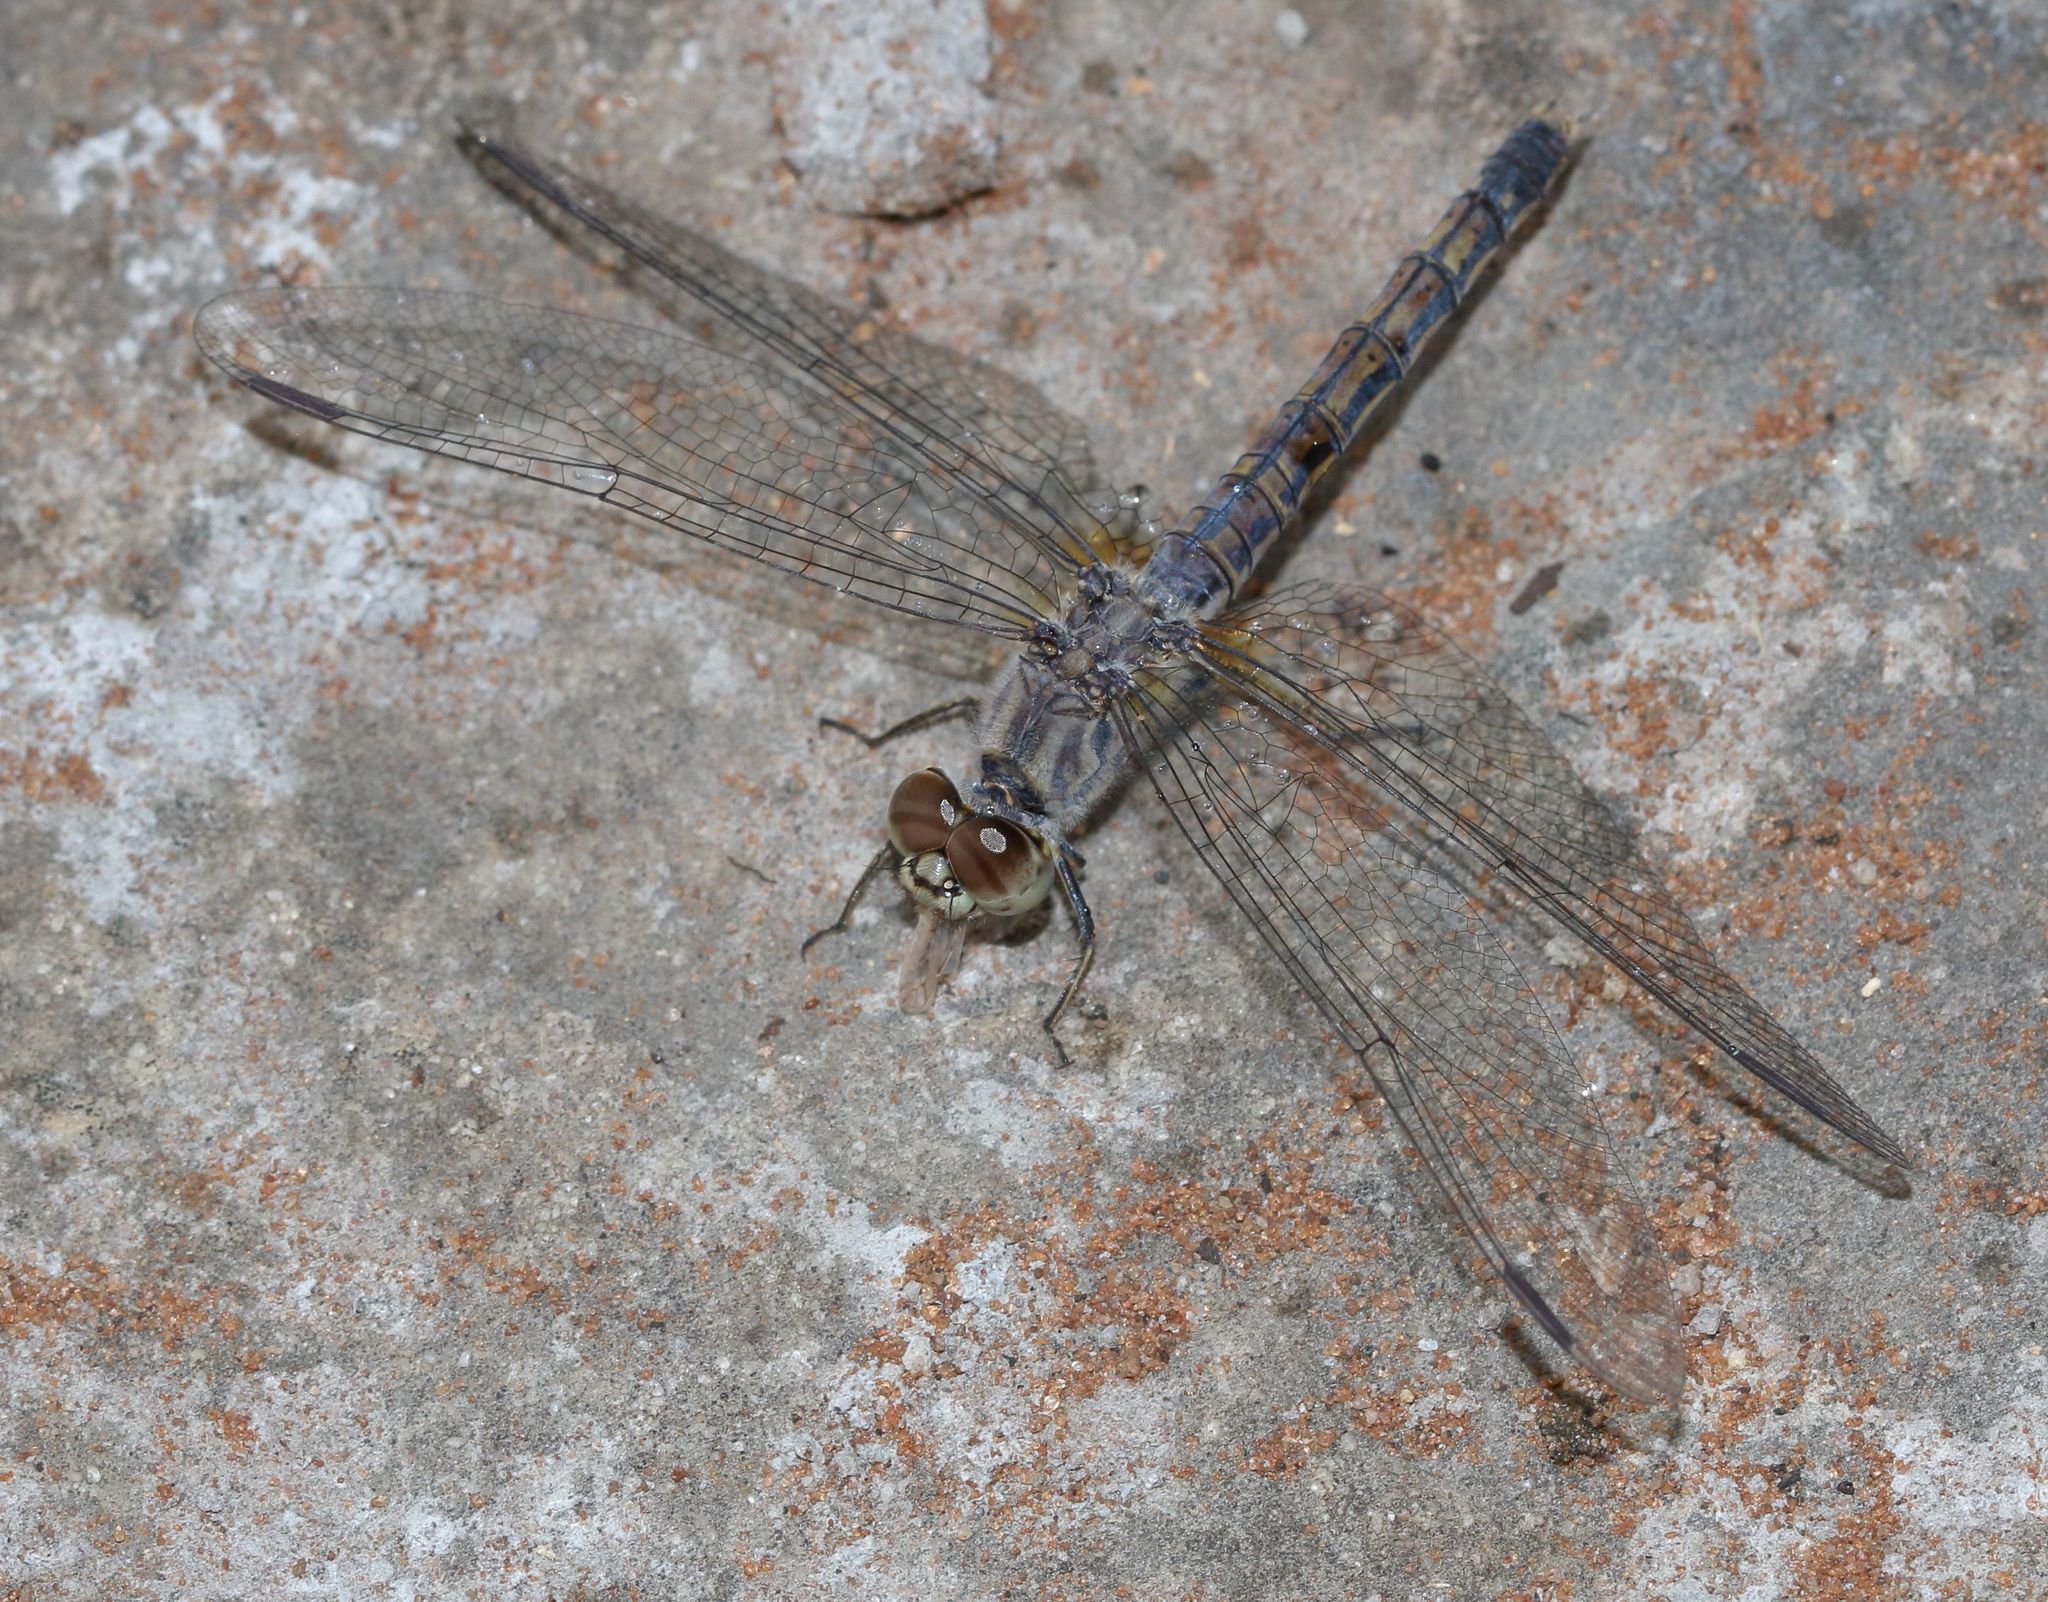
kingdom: Animalia
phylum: Arthropoda
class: Insecta
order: Odonata
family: Libellulidae
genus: Brachythemis
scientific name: Brachythemis leucosticta
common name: Banded groundling
